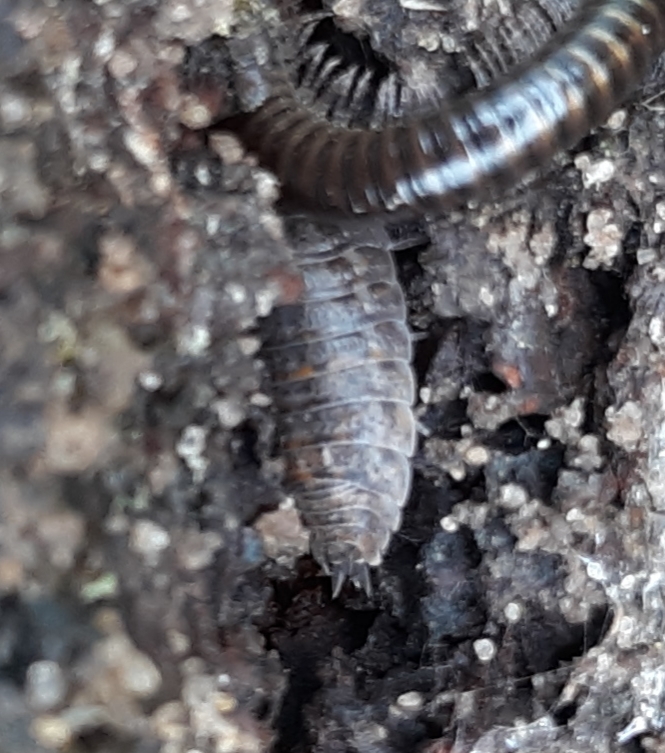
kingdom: Animalia
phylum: Arthropoda
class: Malacostraca
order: Isopoda
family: Trachelipodidae
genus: Trachelipus
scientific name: Trachelipus rathkii
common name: Isopod
